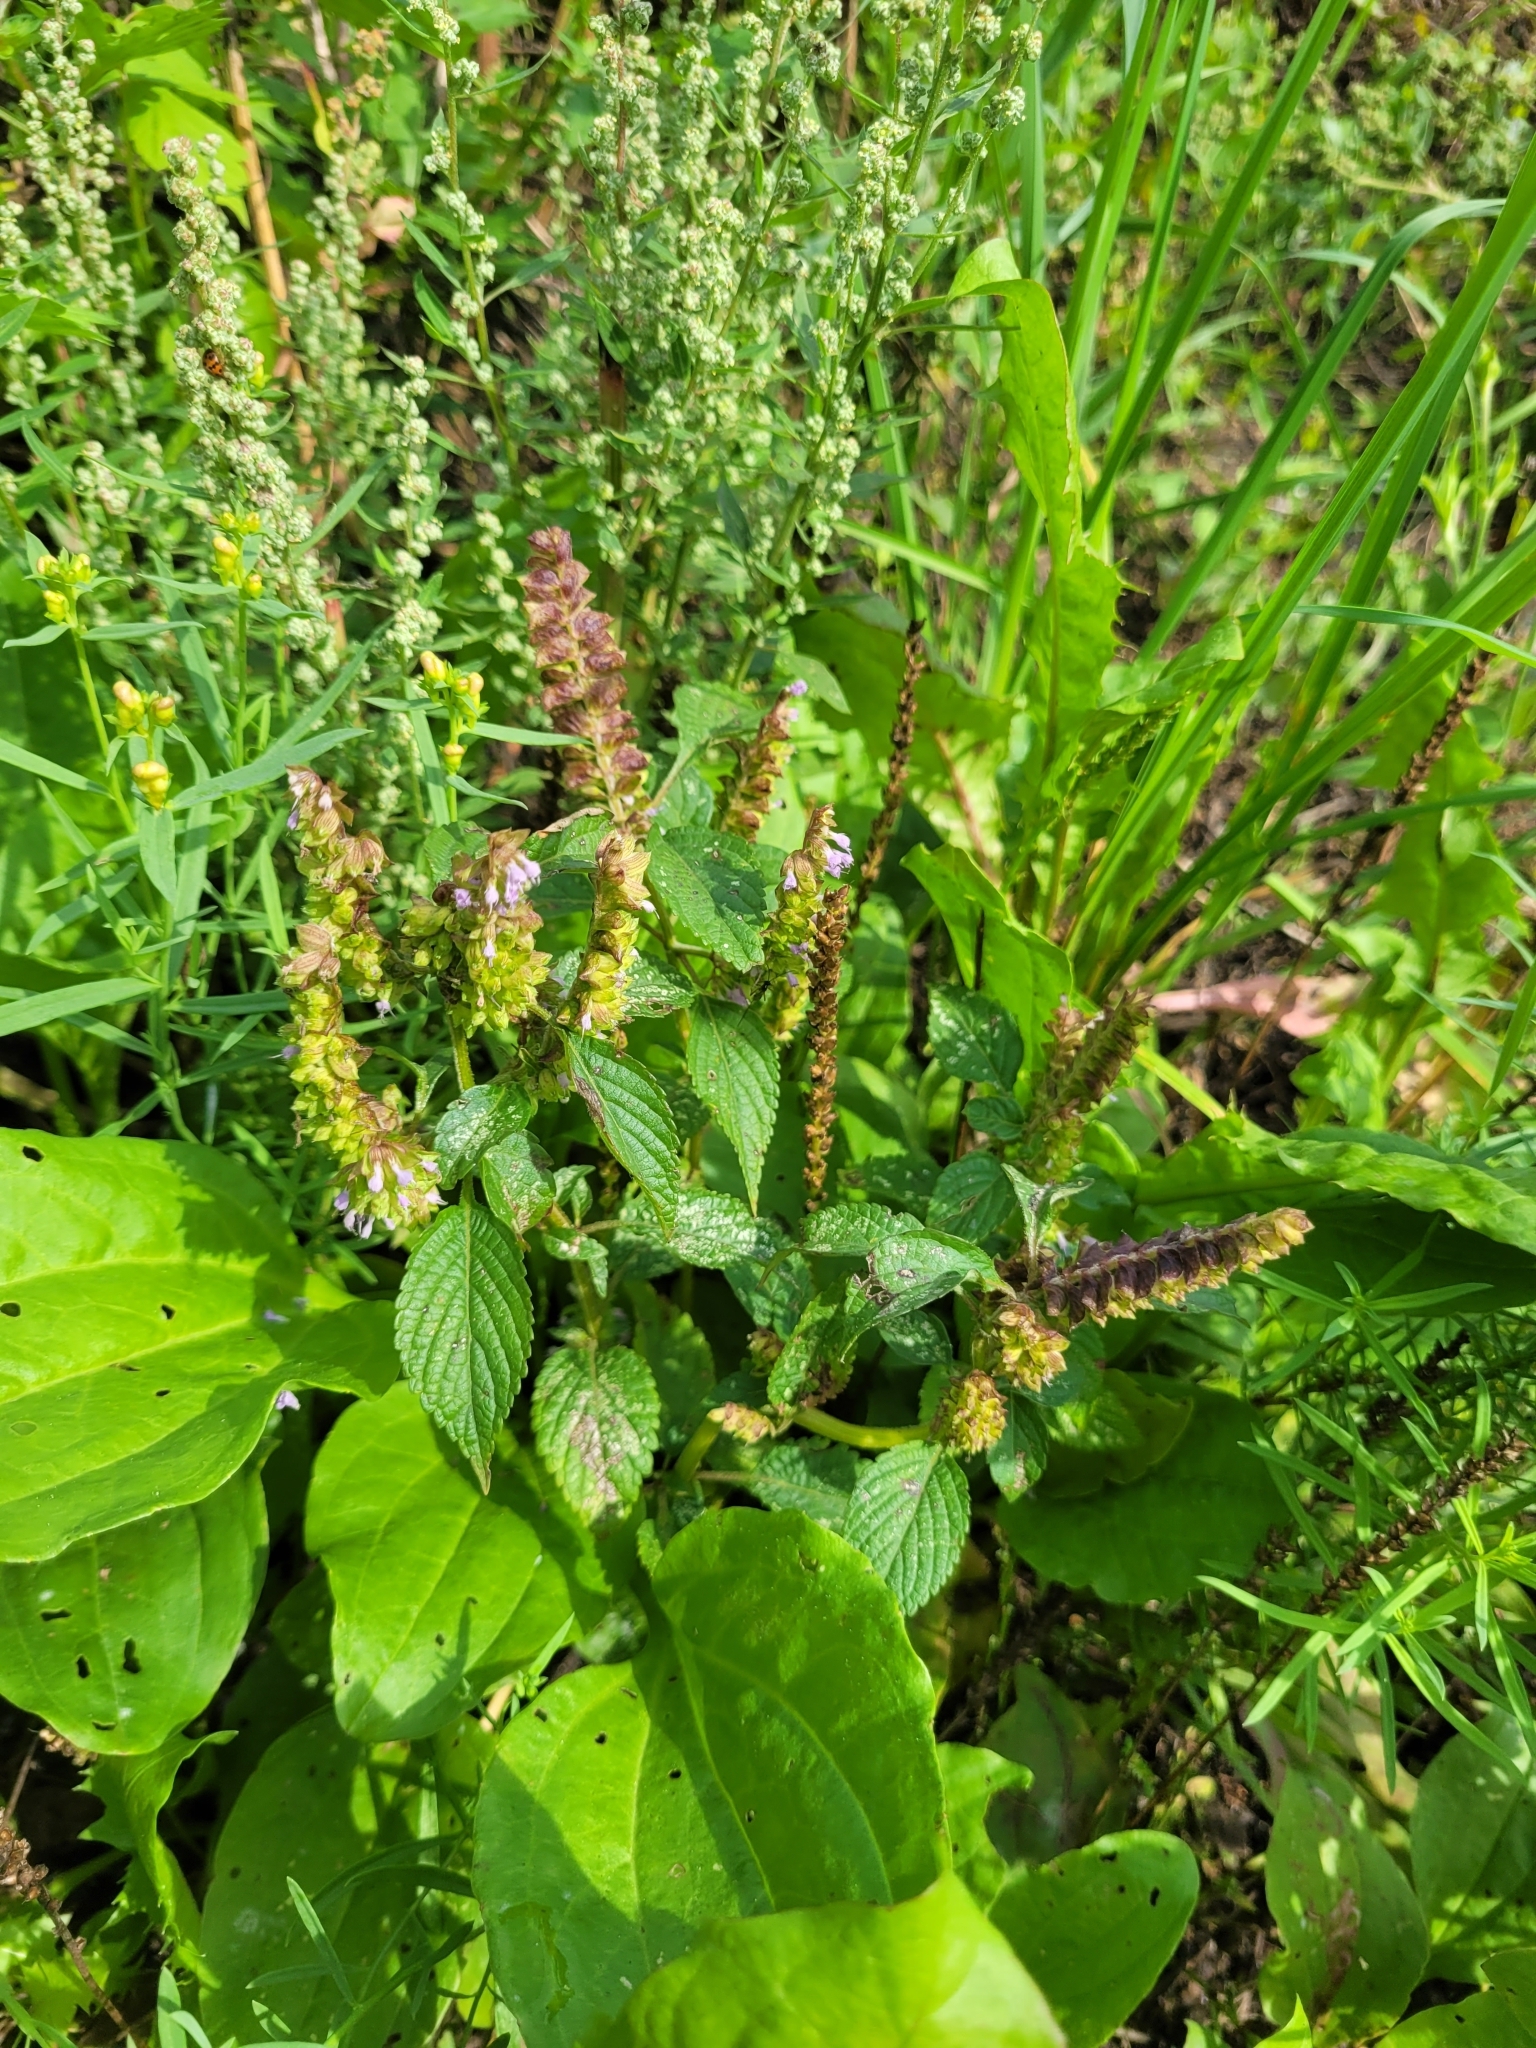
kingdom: Plantae
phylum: Tracheophyta
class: Magnoliopsida
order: Lamiales
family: Lamiaceae
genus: Elsholtzia
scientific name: Elsholtzia ciliata
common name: Ciliate elsholtzia
